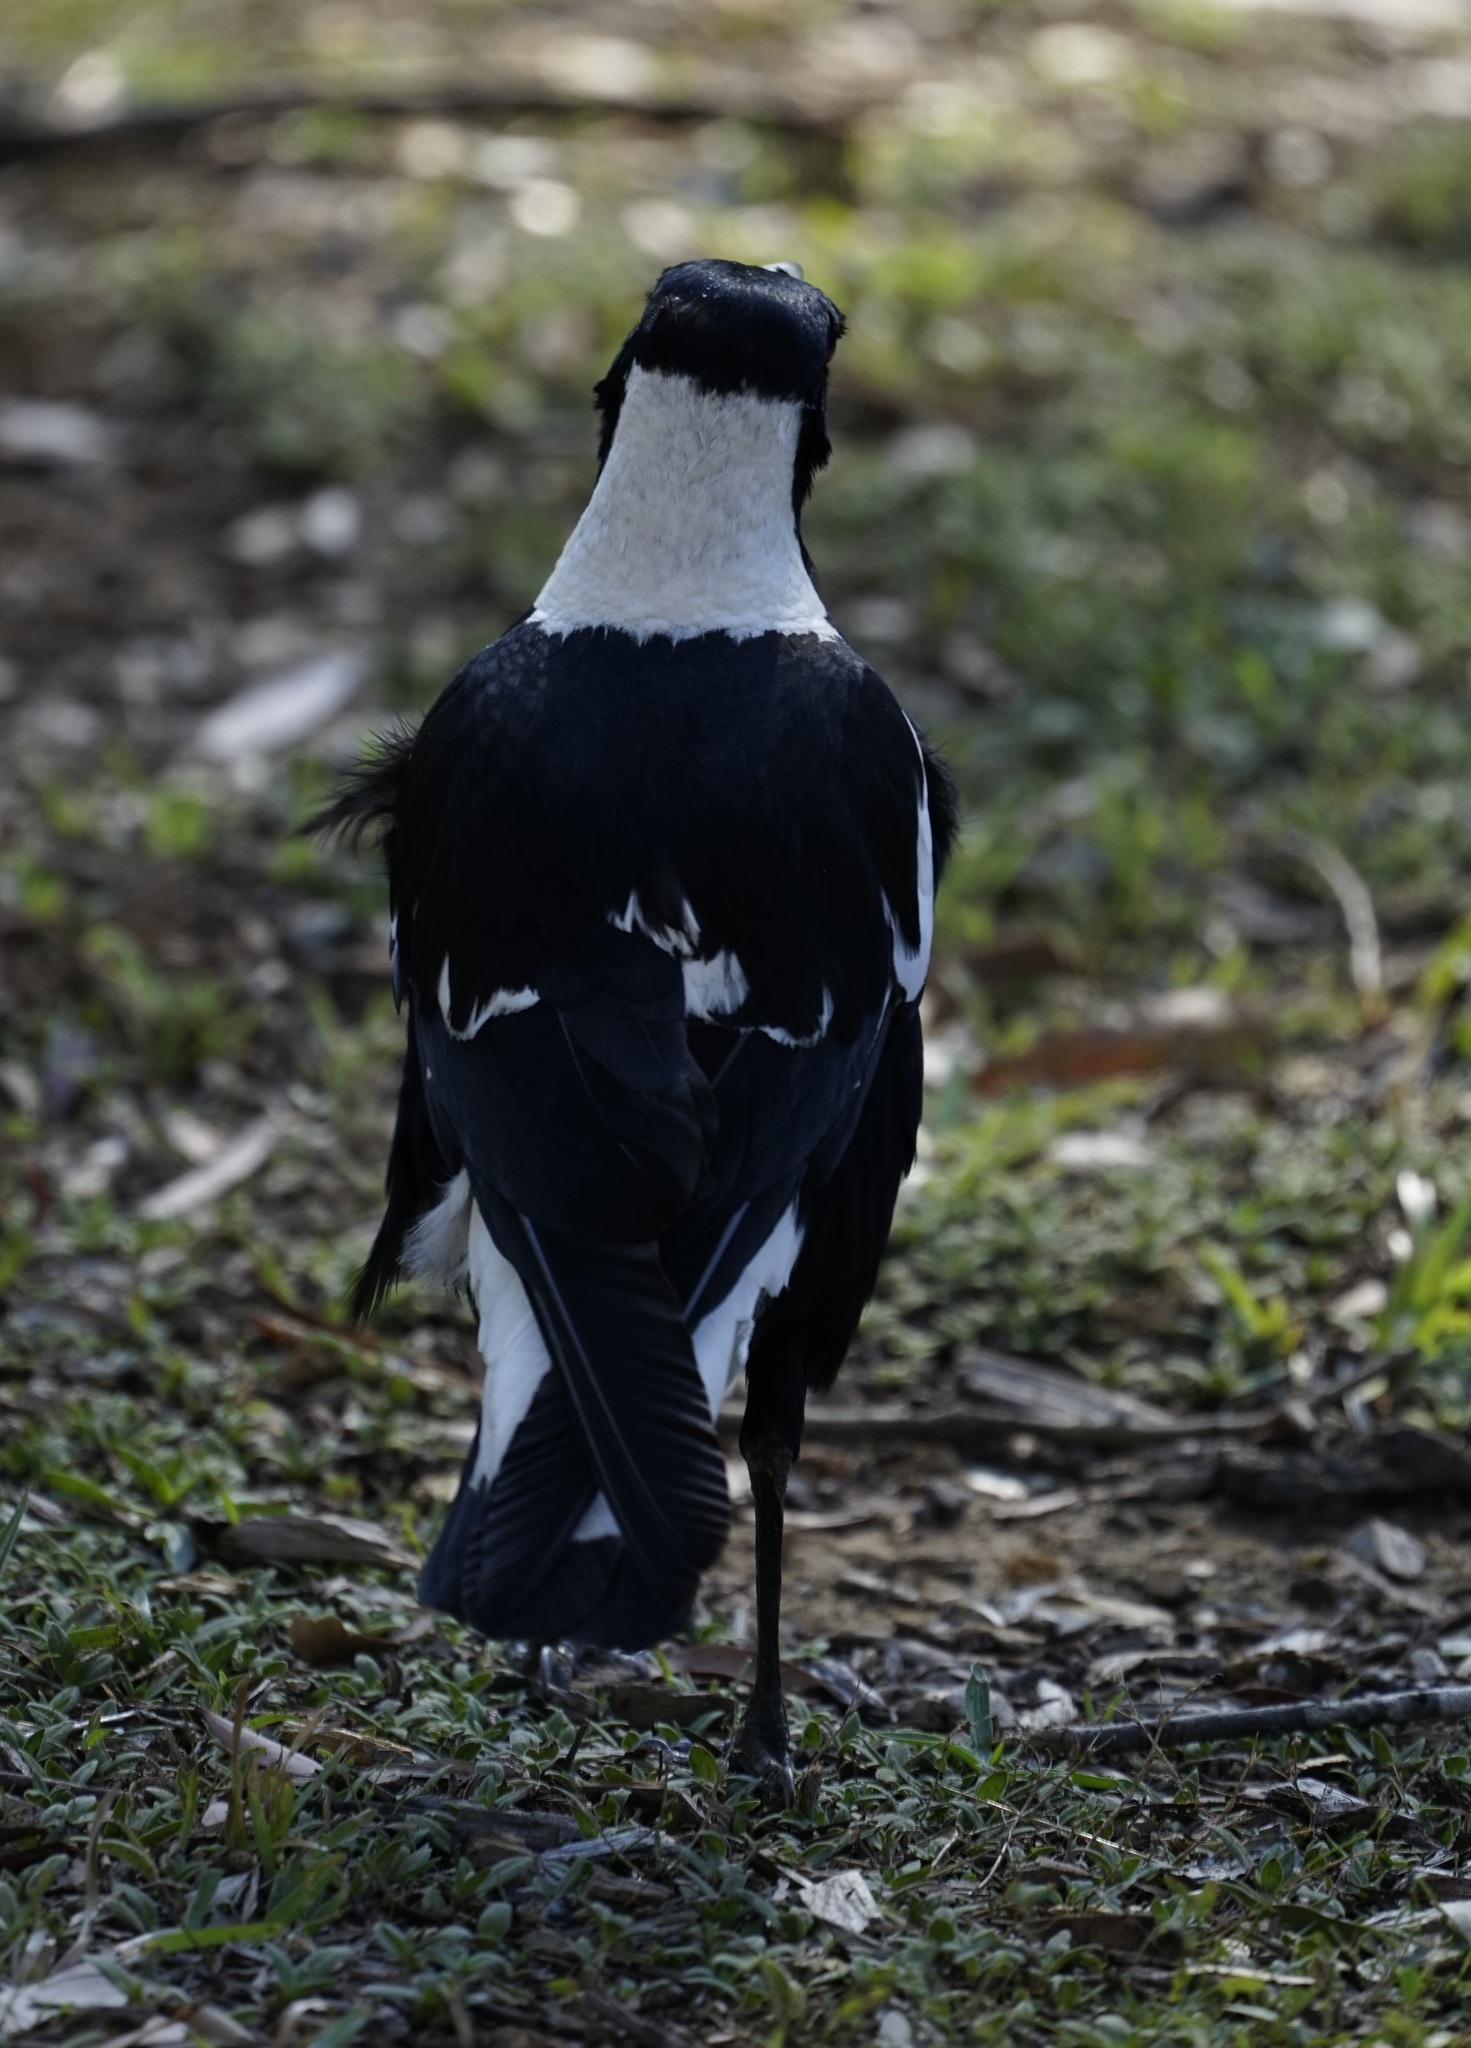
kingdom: Animalia
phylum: Chordata
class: Aves
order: Passeriformes
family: Cracticidae
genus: Gymnorhina
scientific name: Gymnorhina tibicen
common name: Australian magpie
